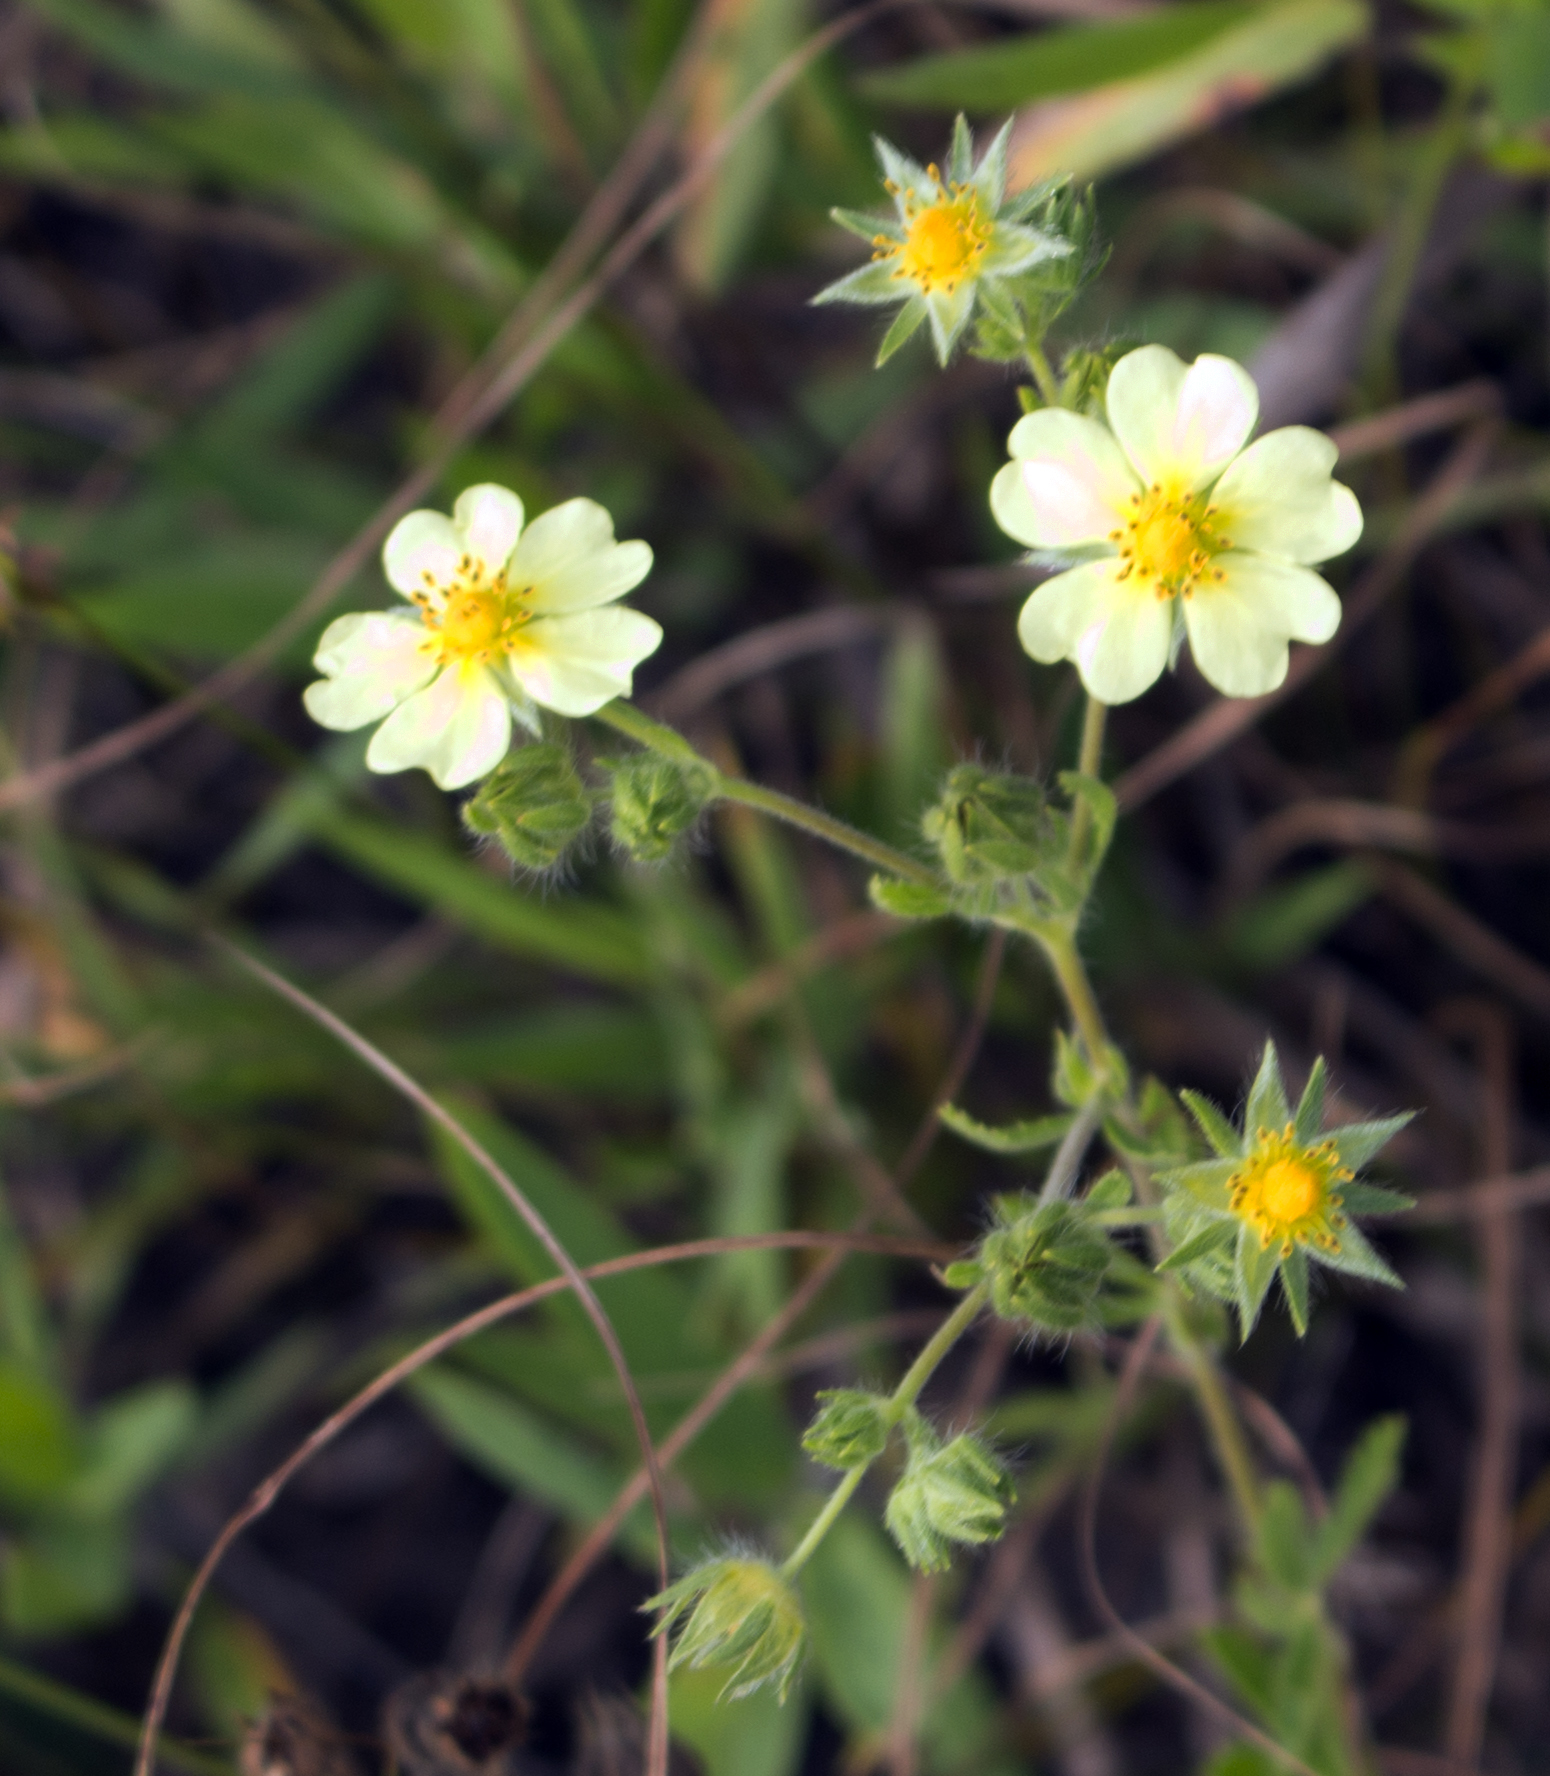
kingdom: Plantae
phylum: Tracheophyta
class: Magnoliopsida
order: Rosales
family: Rosaceae
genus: Potentilla
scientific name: Potentilla recta
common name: Sulphur cinquefoil
